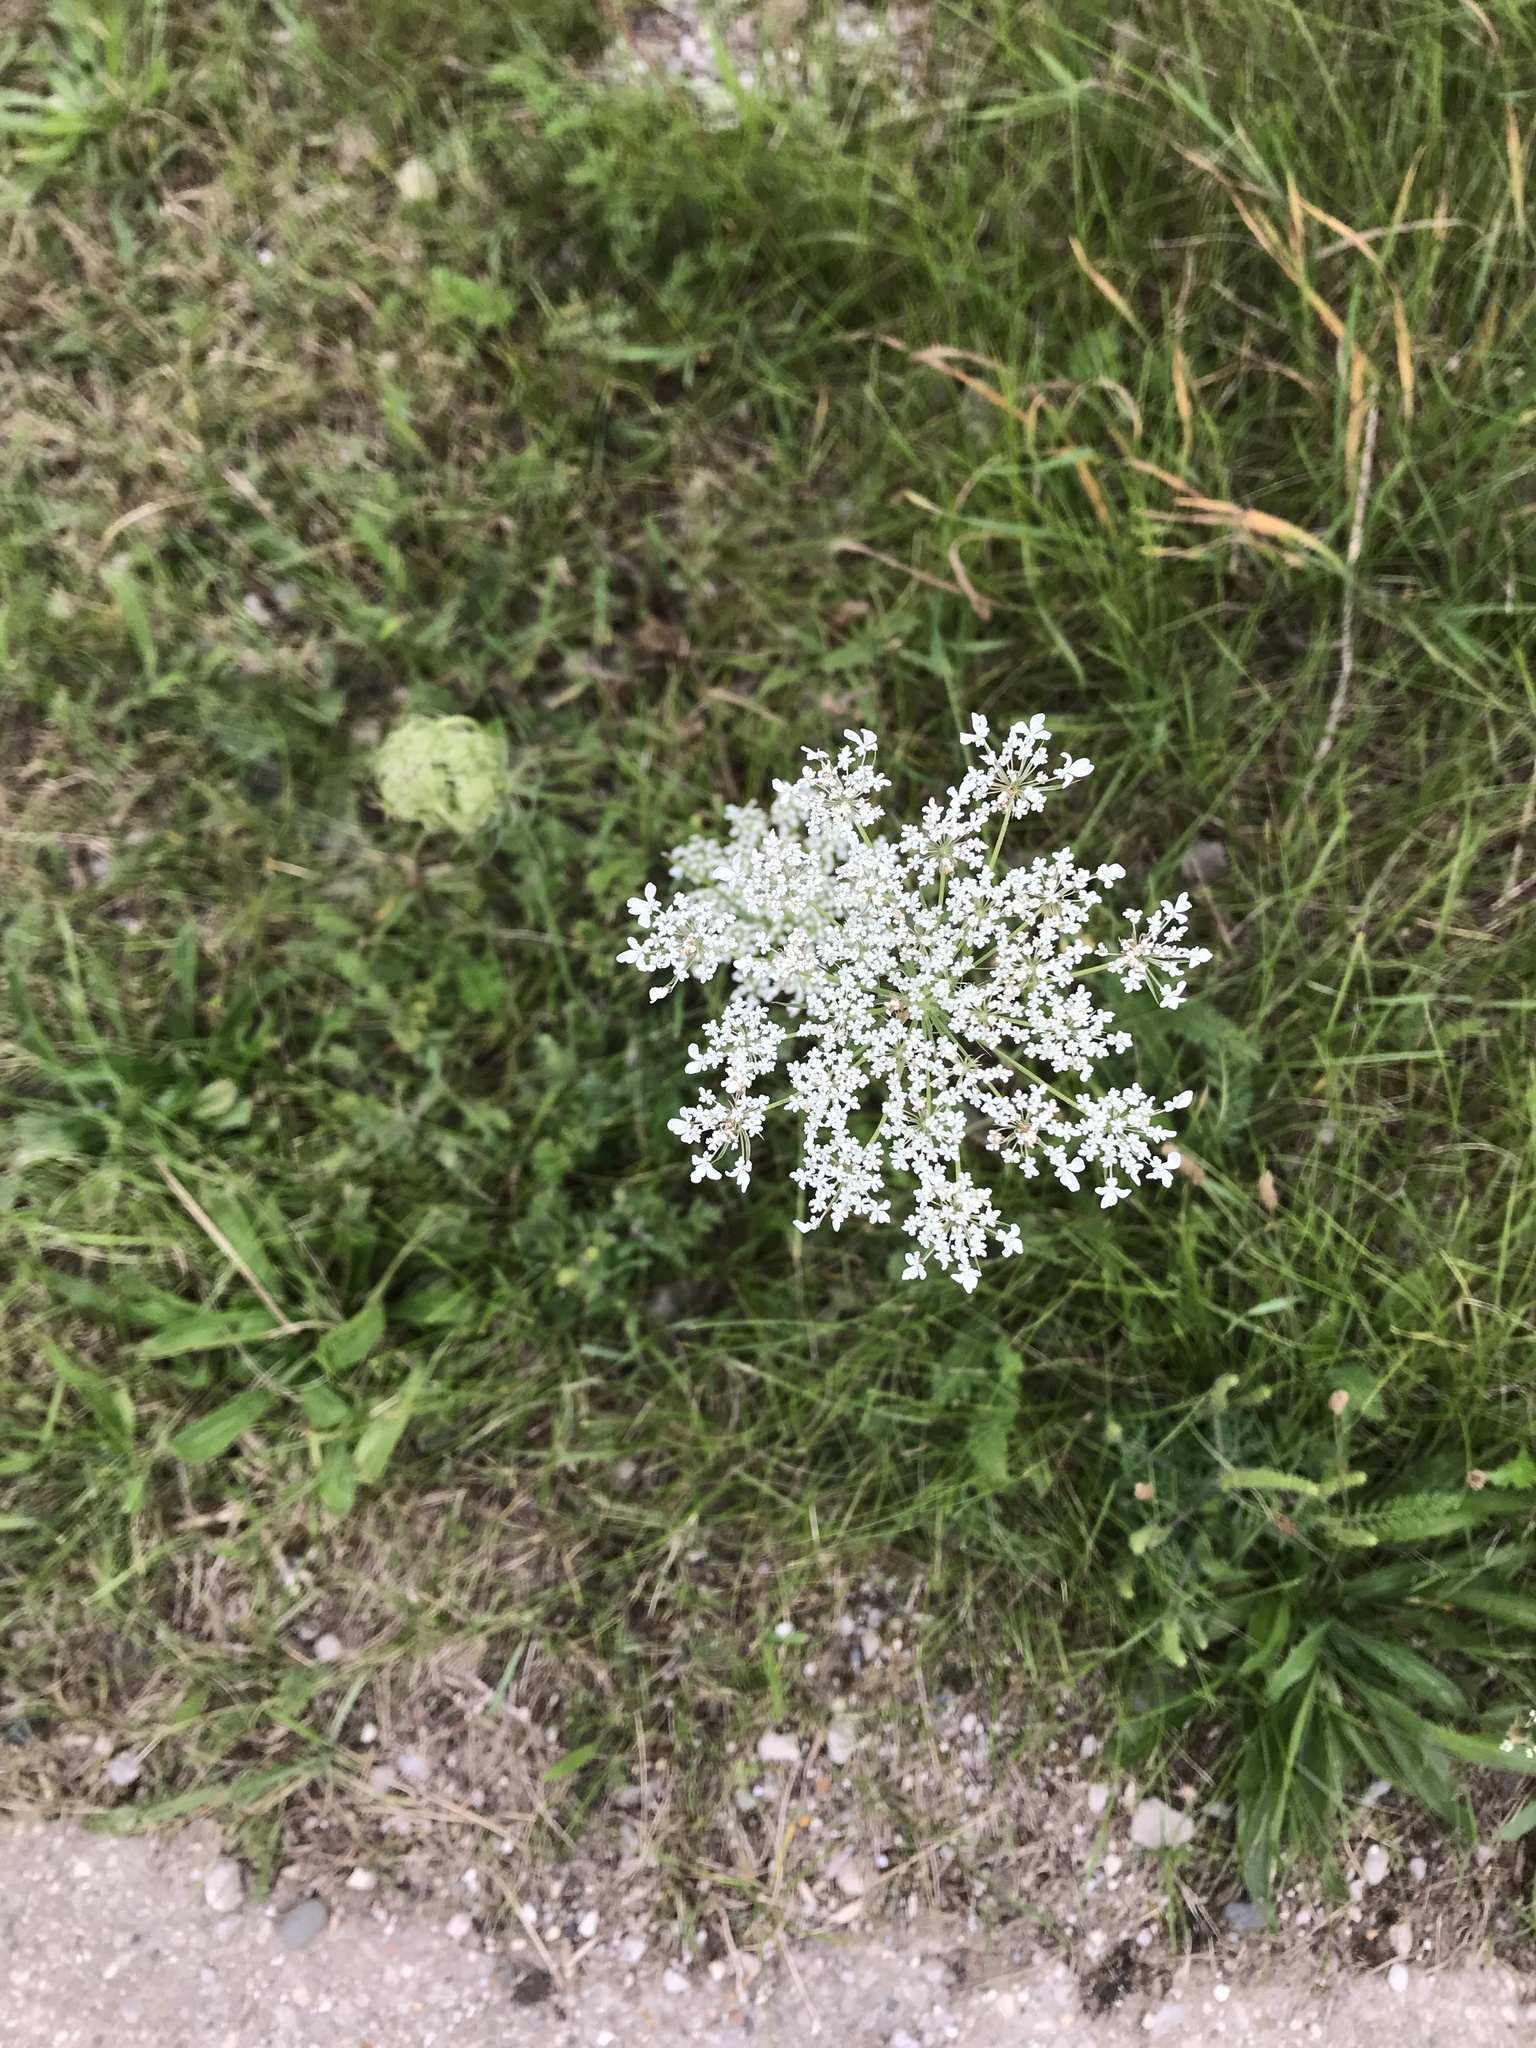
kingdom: Plantae
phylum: Tracheophyta
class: Magnoliopsida
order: Apiales
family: Apiaceae
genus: Daucus
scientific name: Daucus carota
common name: Wild carrot
